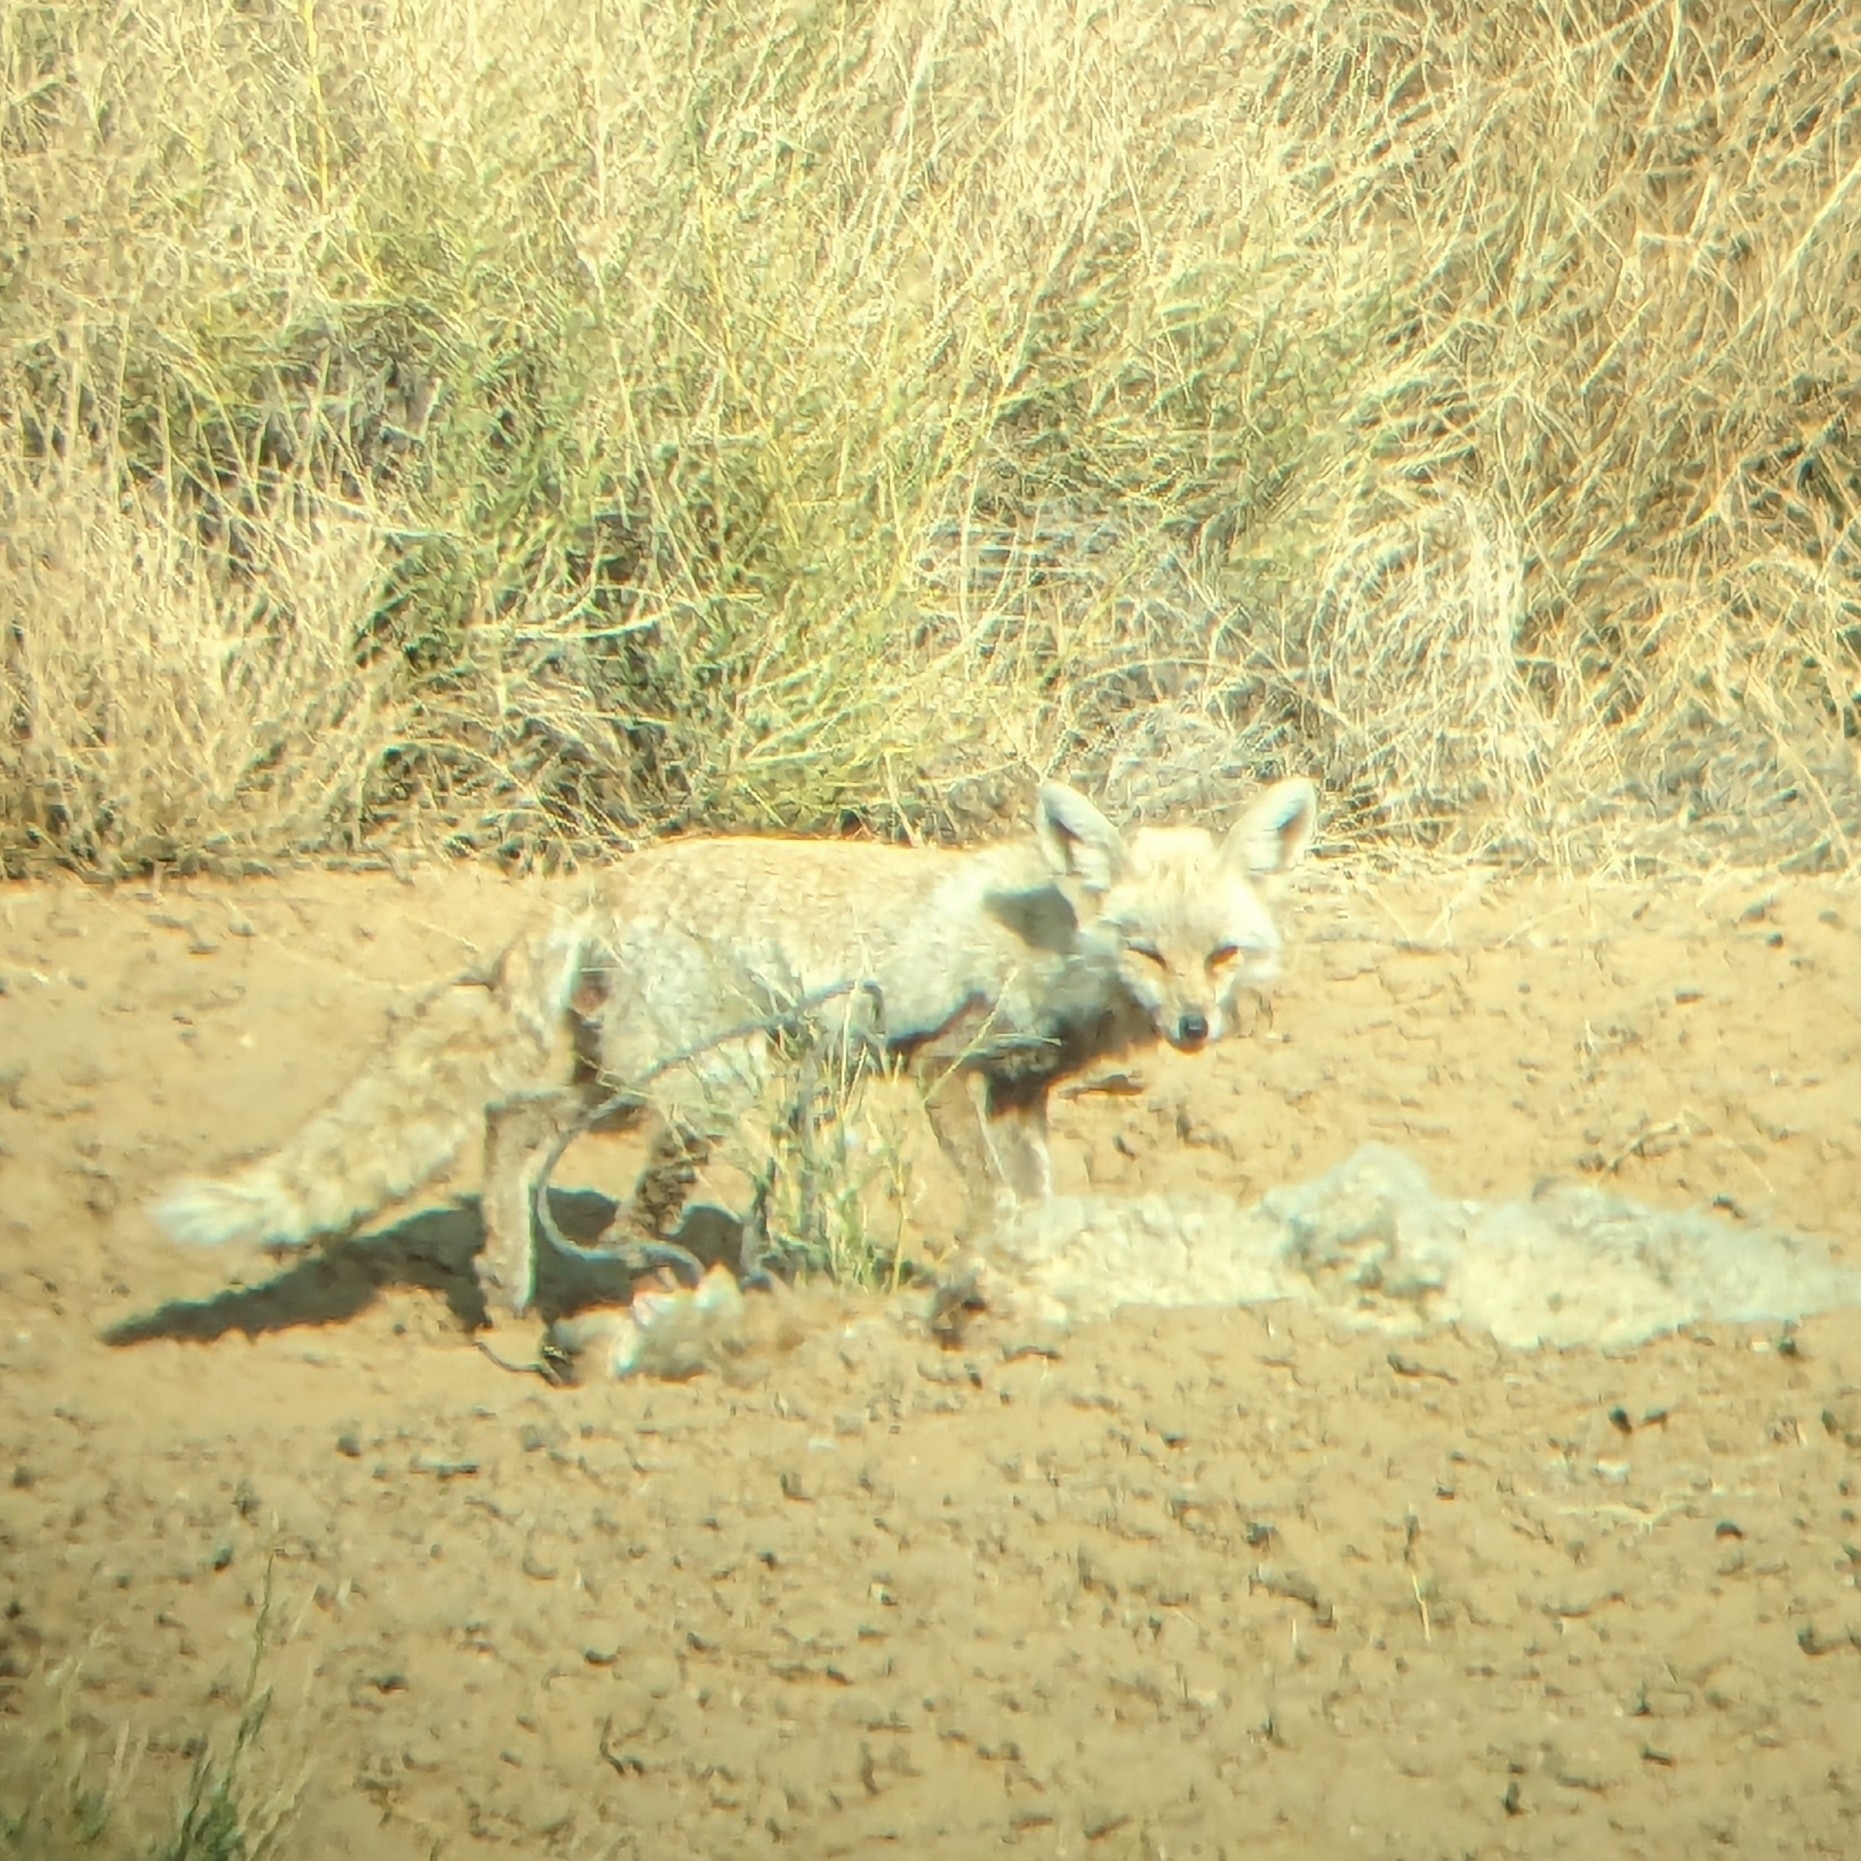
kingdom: Animalia
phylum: Chordata
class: Mammalia
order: Carnivora
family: Canidae
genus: Vulpes
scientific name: Vulpes vulpes
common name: Red fox
